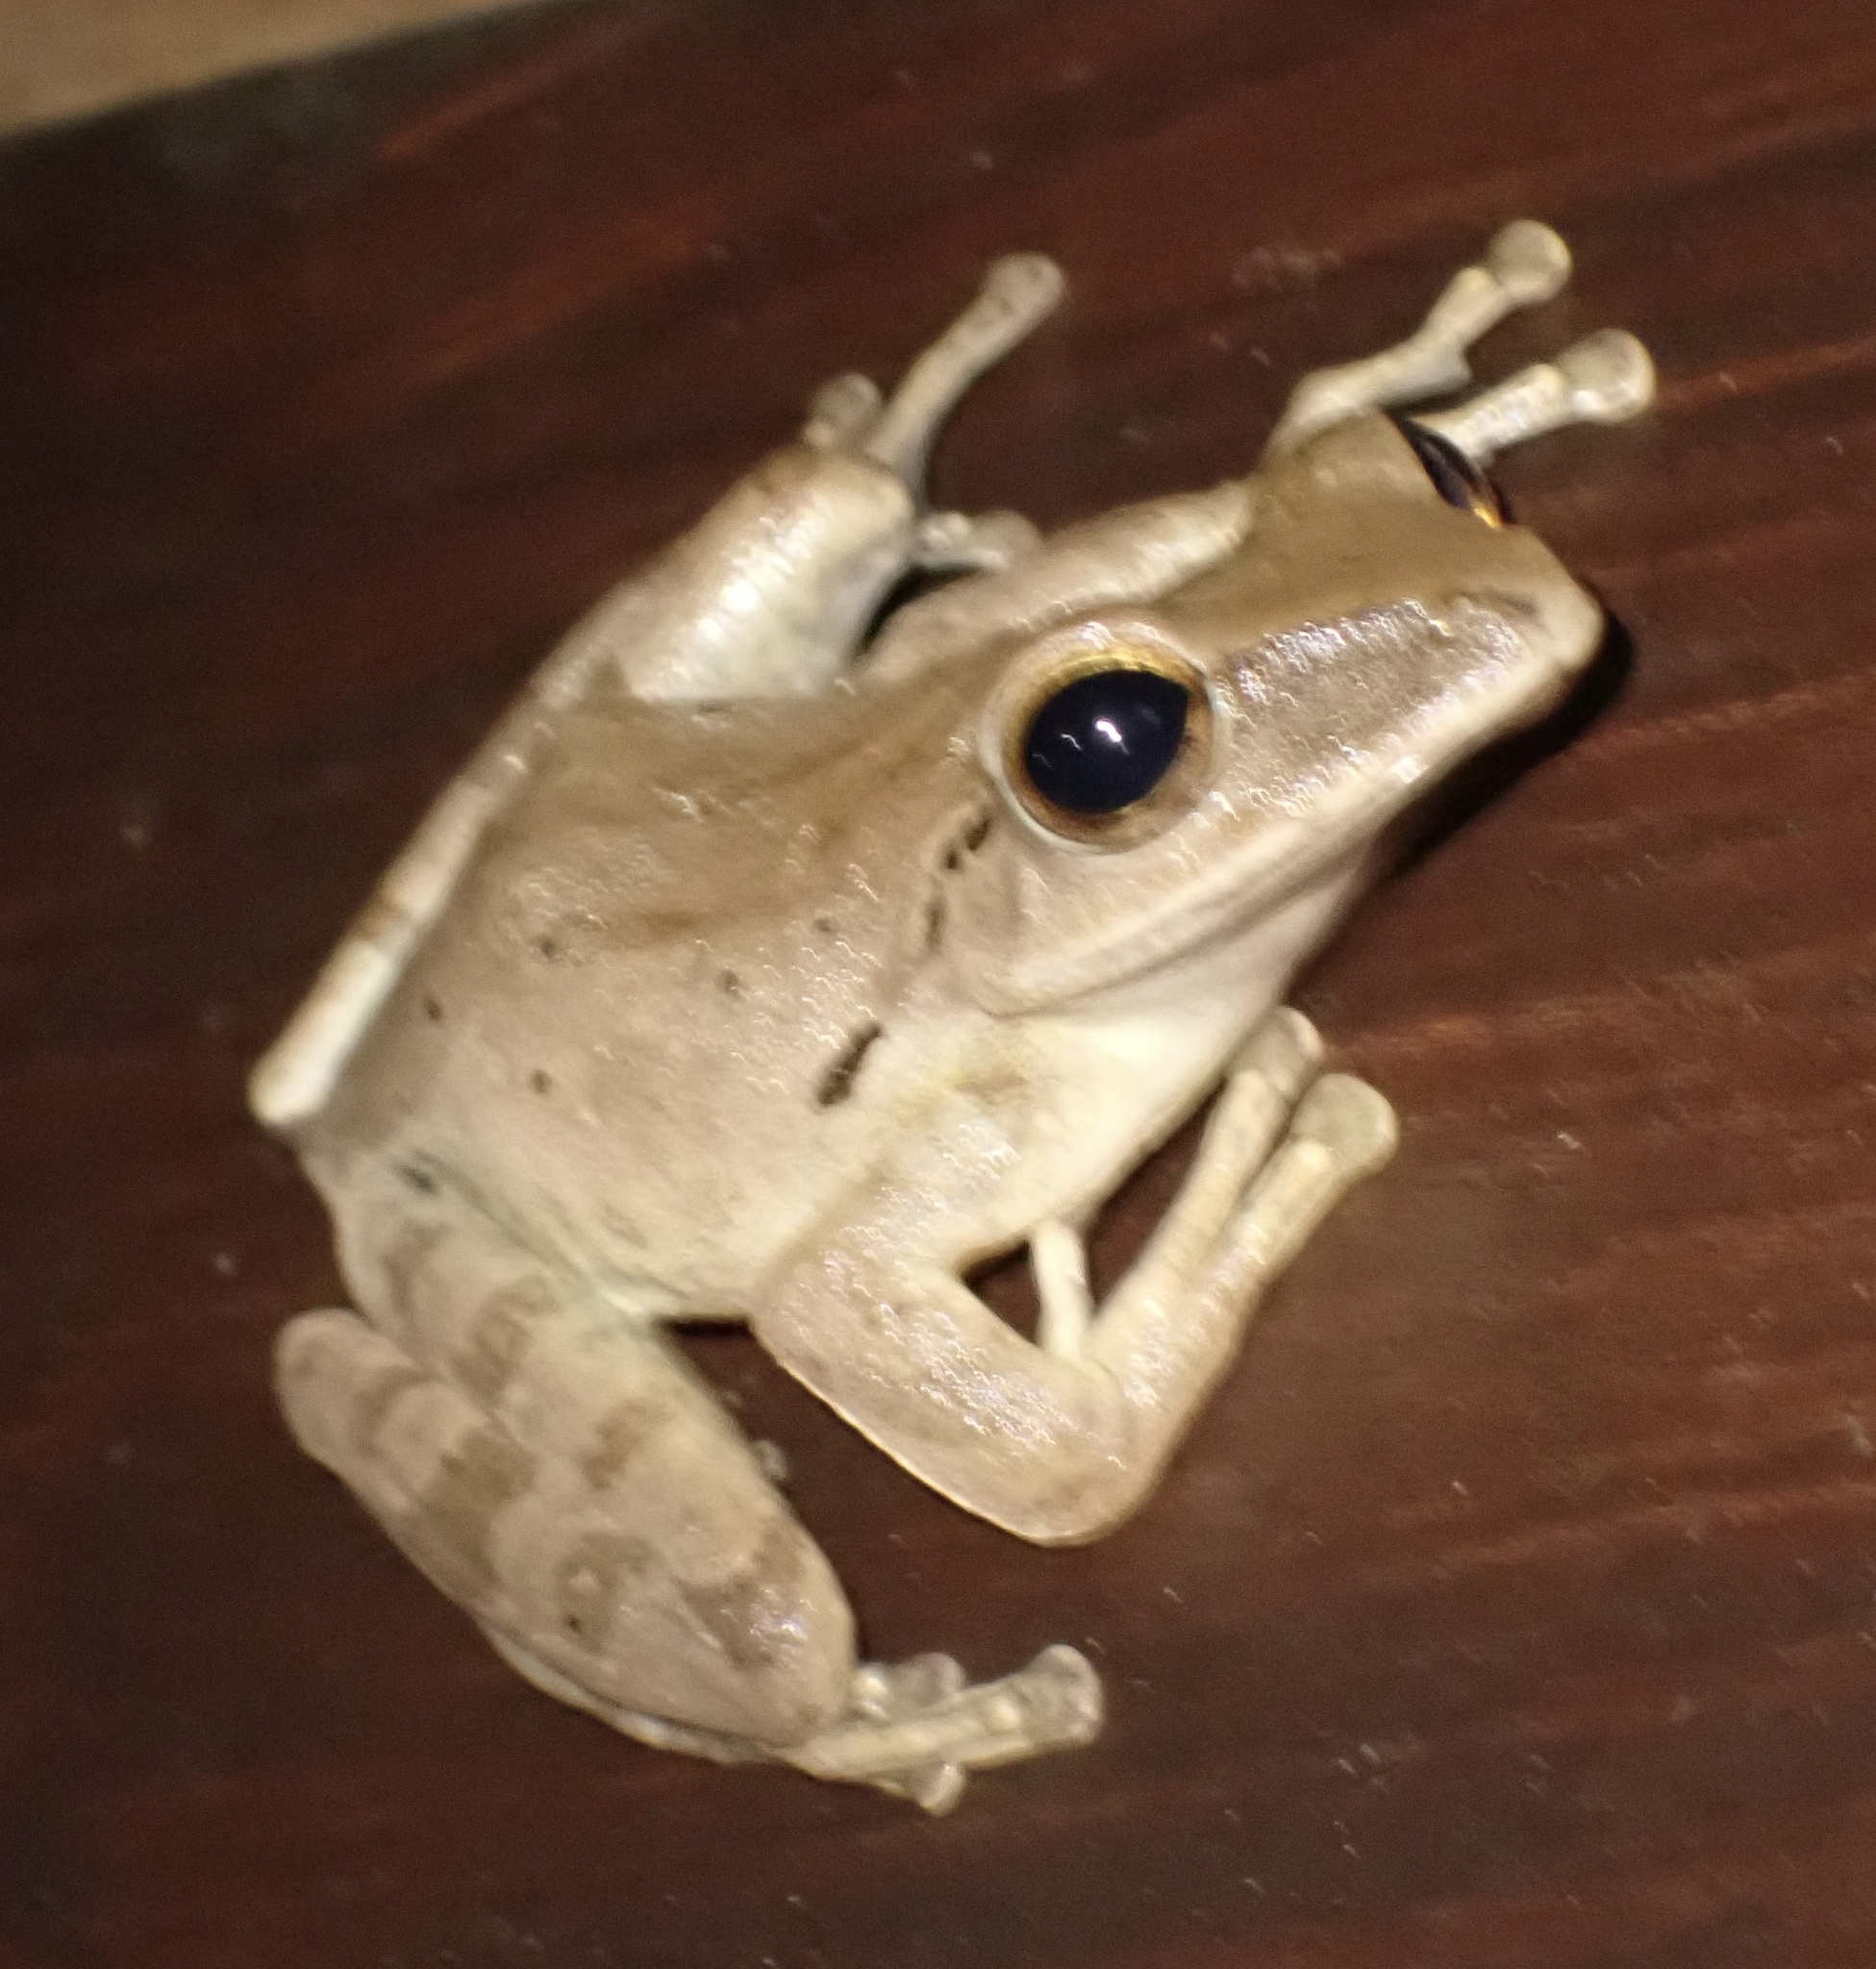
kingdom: Animalia
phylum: Chordata
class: Amphibia
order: Anura
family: Rhacophoridae
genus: Polypedates
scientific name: Polypedates iskandari
